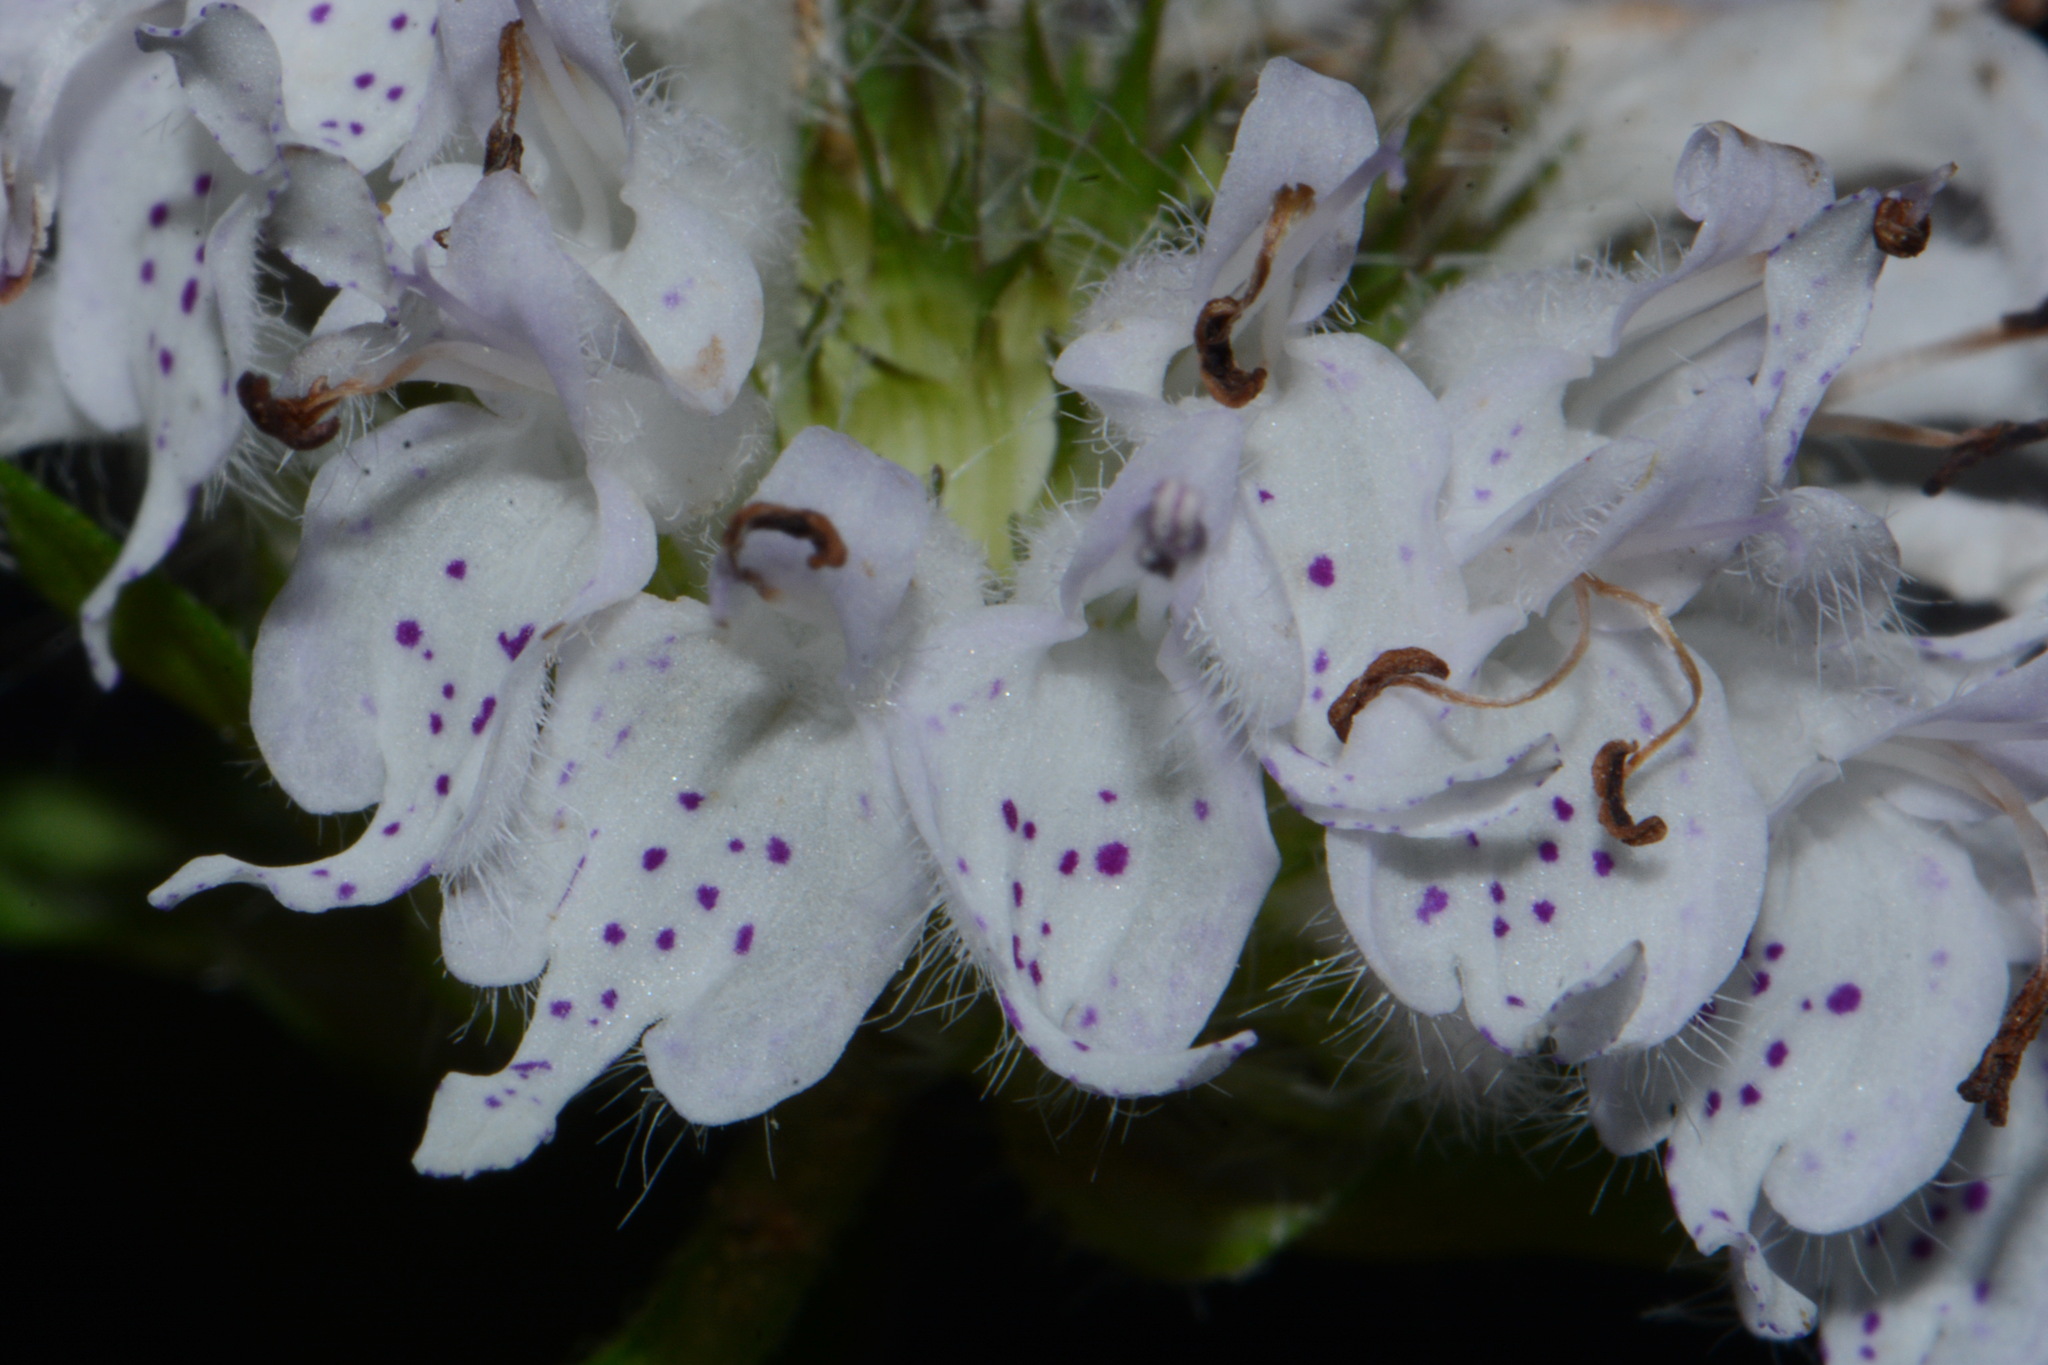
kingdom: Plantae
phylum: Tracheophyta
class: Magnoliopsida
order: Lamiales
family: Lamiaceae
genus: Blephilia
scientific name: Blephilia subnuda
